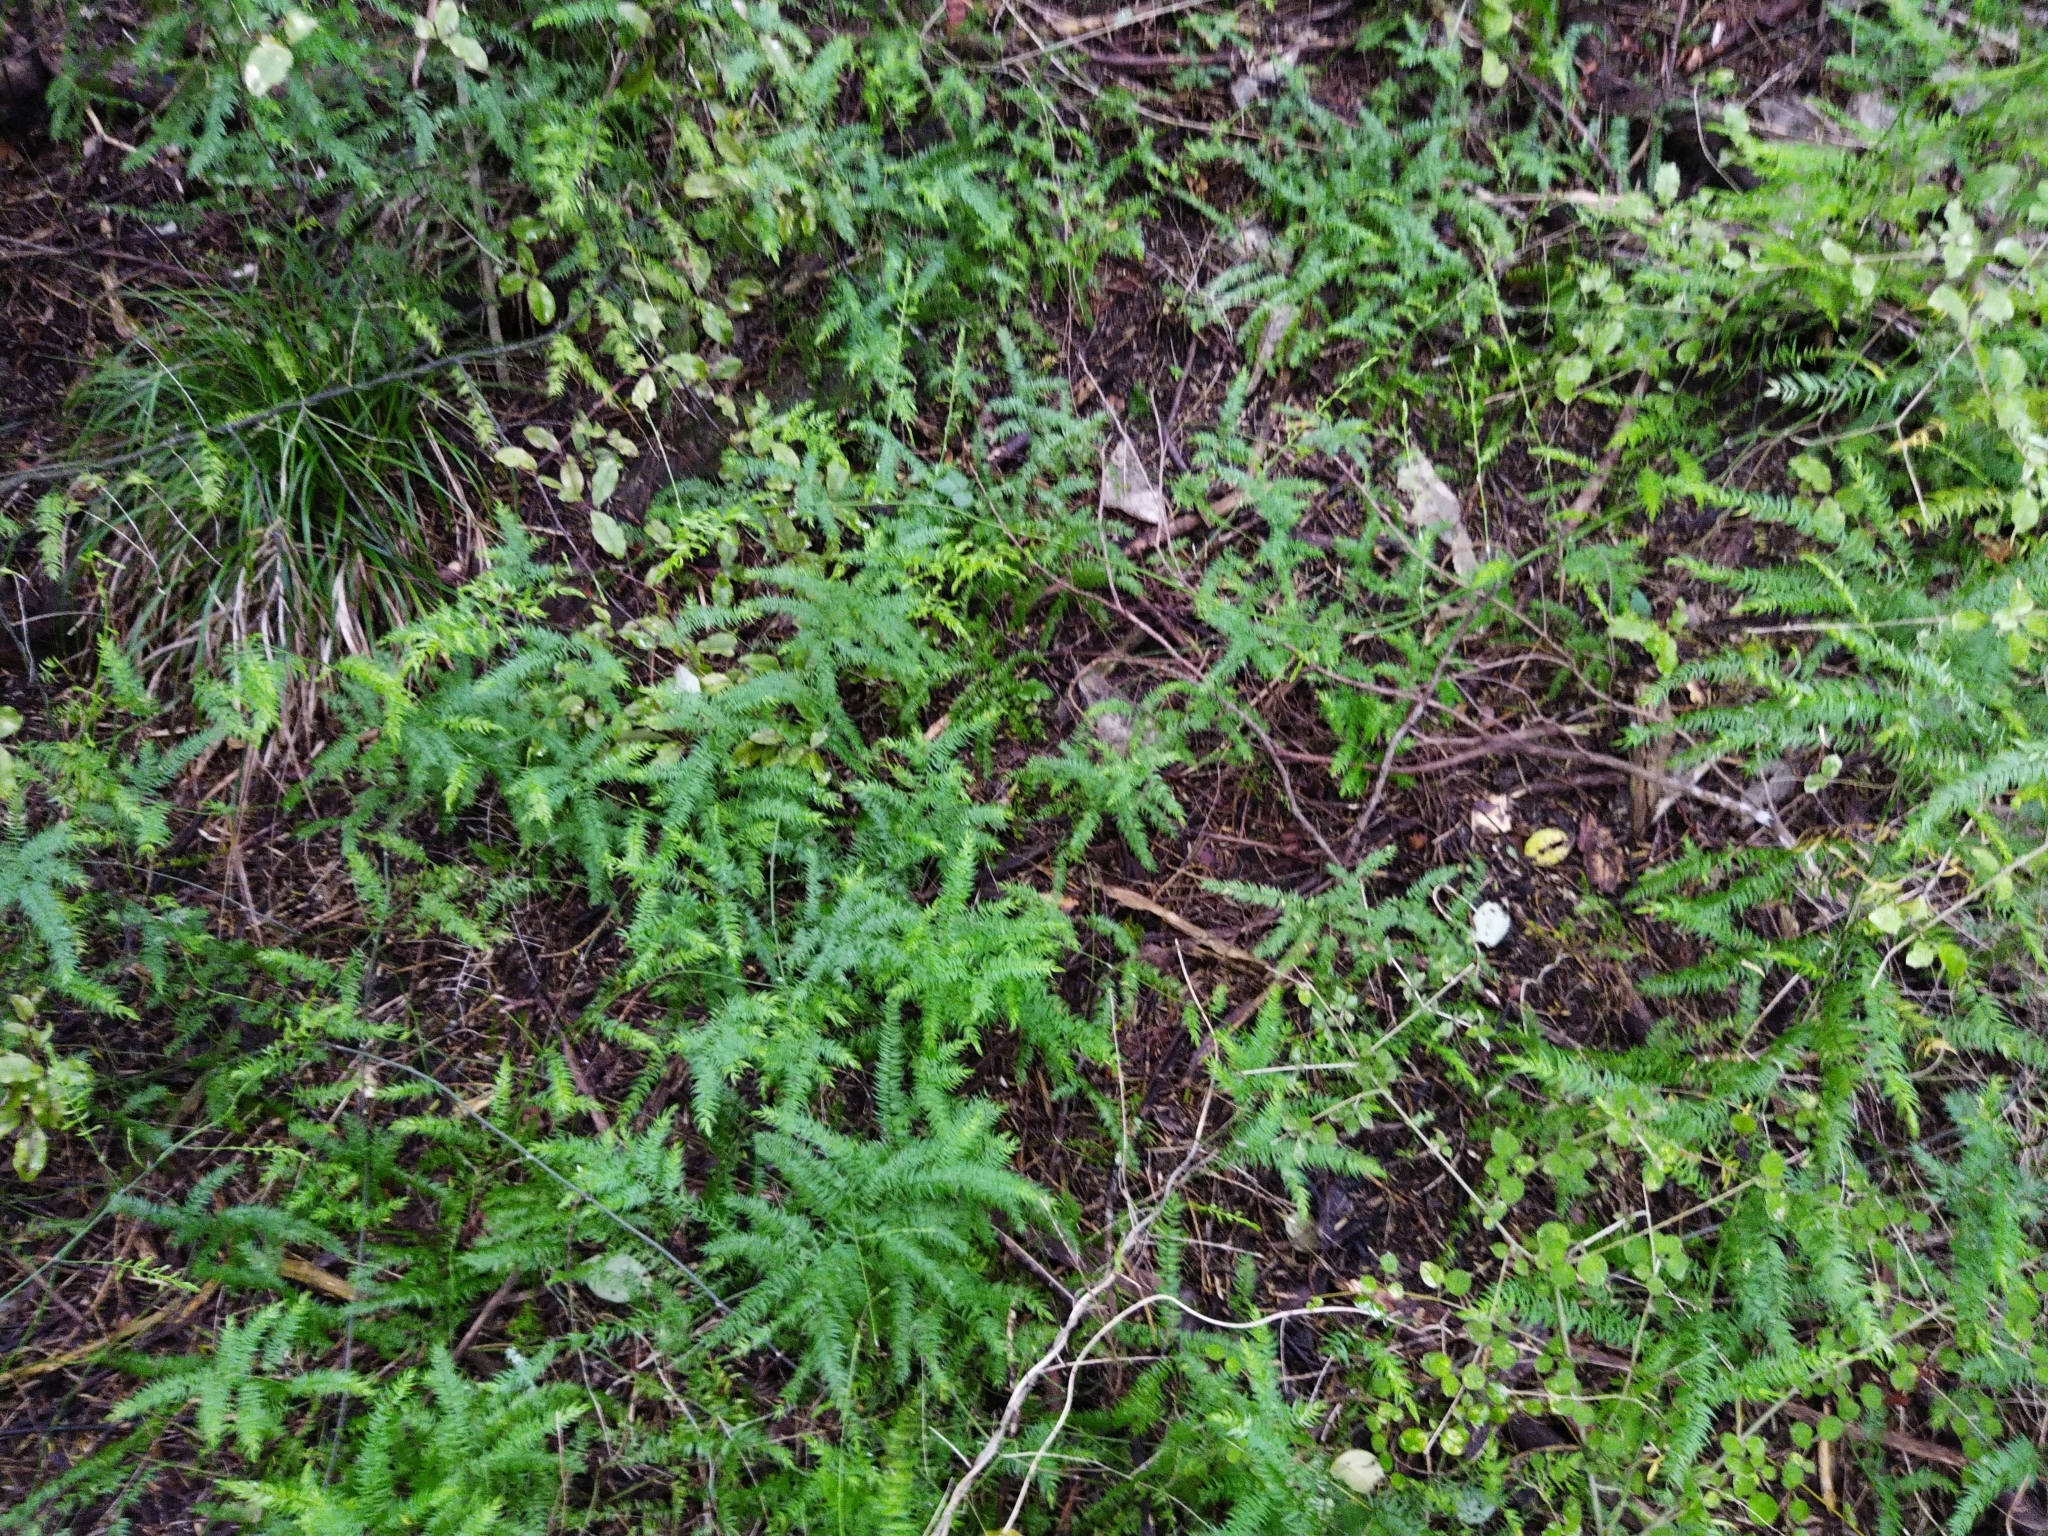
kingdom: Plantae
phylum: Tracheophyta
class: Liliopsida
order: Asparagales
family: Asparagaceae
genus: Asparagus
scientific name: Asparagus scandens
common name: Asparagus-fern
